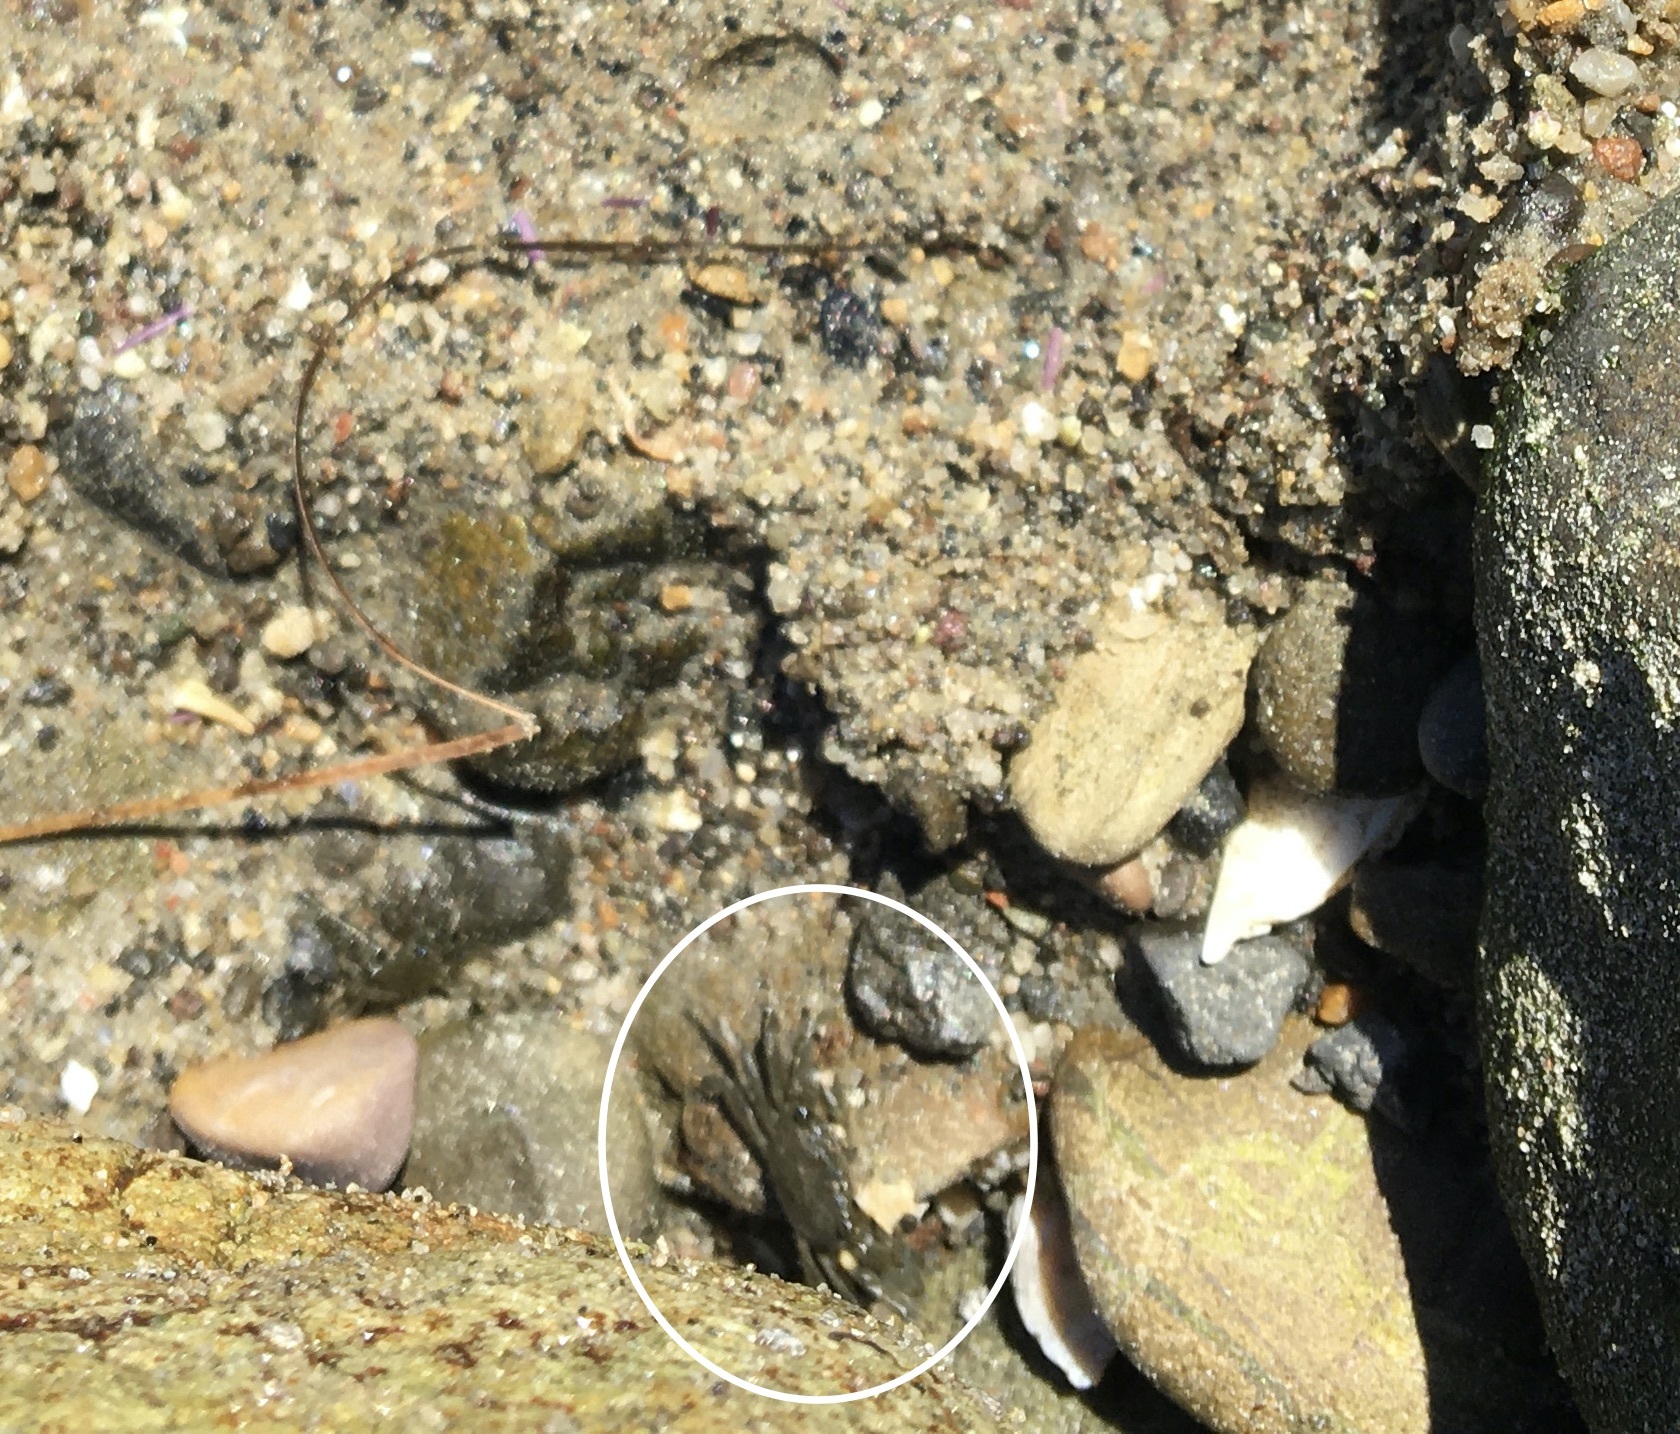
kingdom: Animalia
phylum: Arthropoda
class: Malacostraca
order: Decapoda
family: Grapsidae
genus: Pachygrapsus
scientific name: Pachygrapsus crassipes
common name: Striped shore crab
